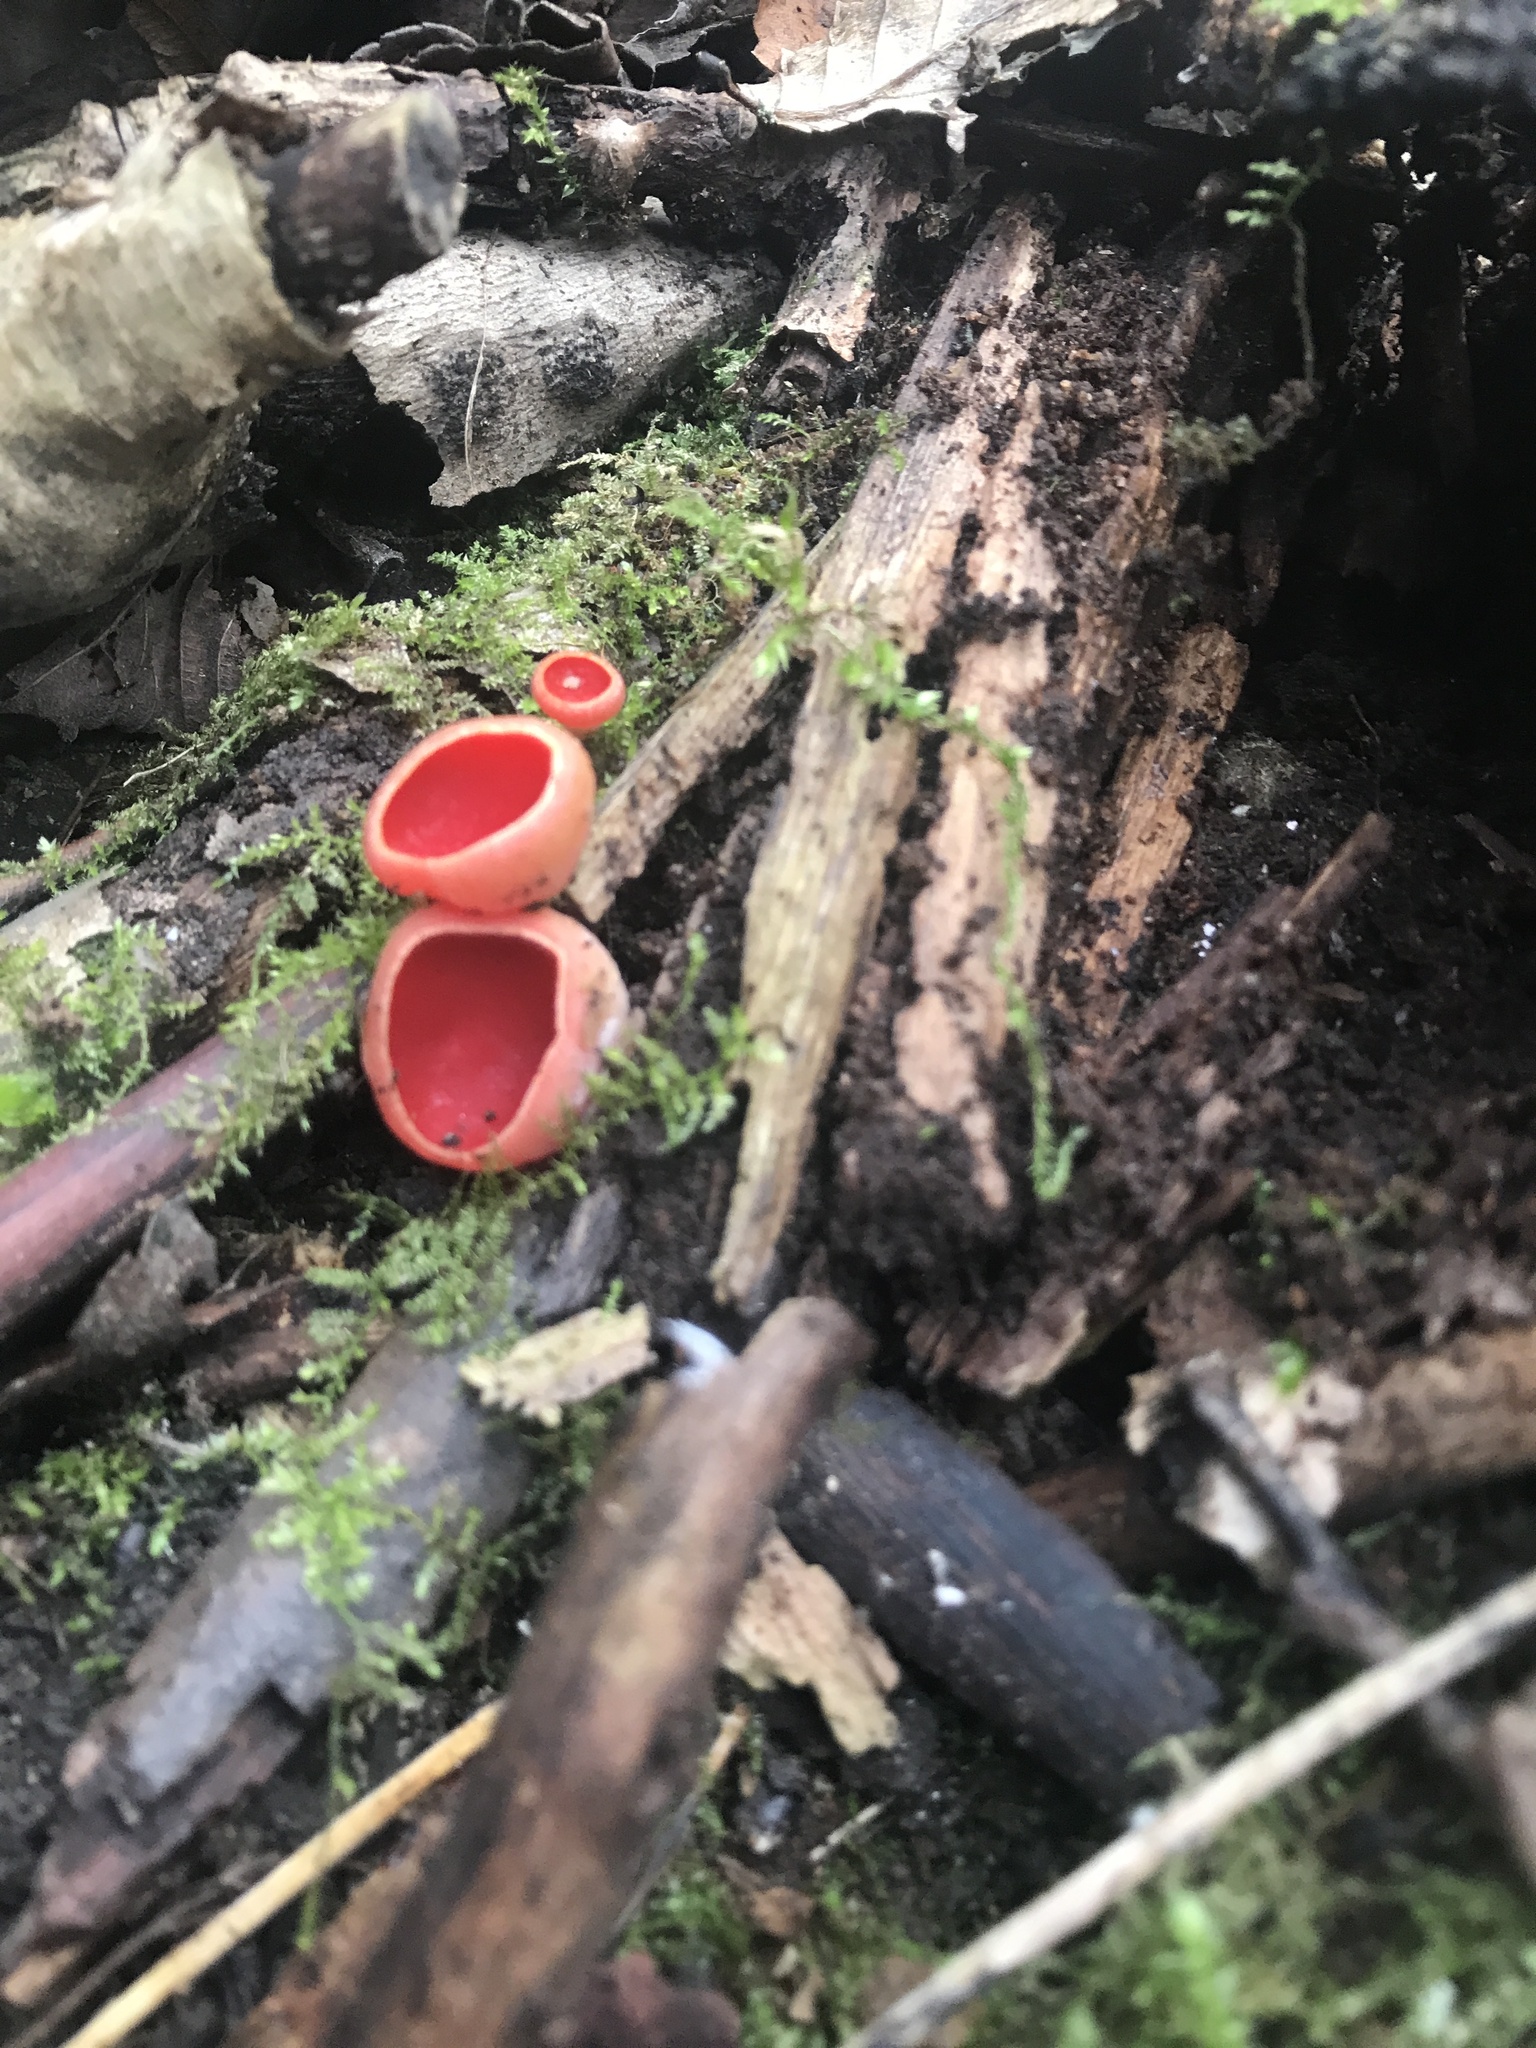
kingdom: Fungi
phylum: Ascomycota
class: Pezizomycetes
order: Pezizales
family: Sarcoscyphaceae
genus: Sarcoscypha
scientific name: Sarcoscypha
